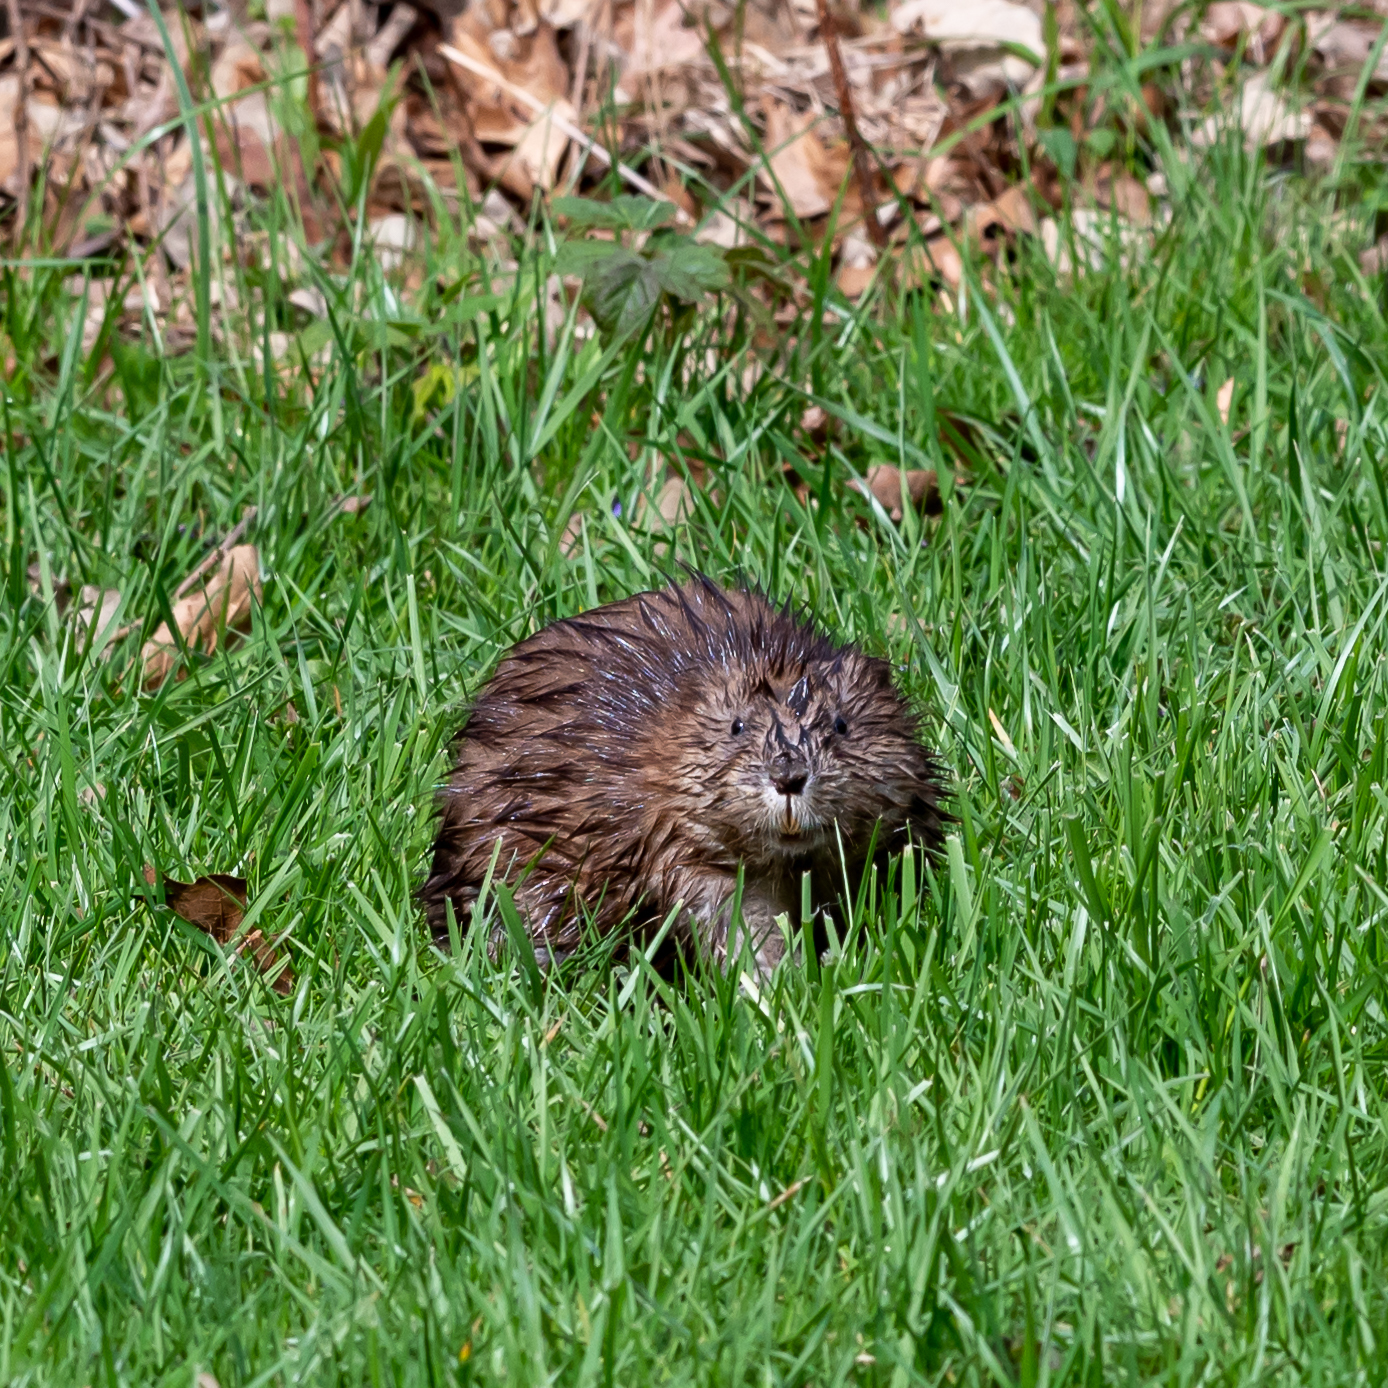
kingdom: Animalia
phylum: Chordata
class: Mammalia
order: Rodentia
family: Cricetidae
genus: Ondatra
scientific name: Ondatra zibethicus
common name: Muskrat
